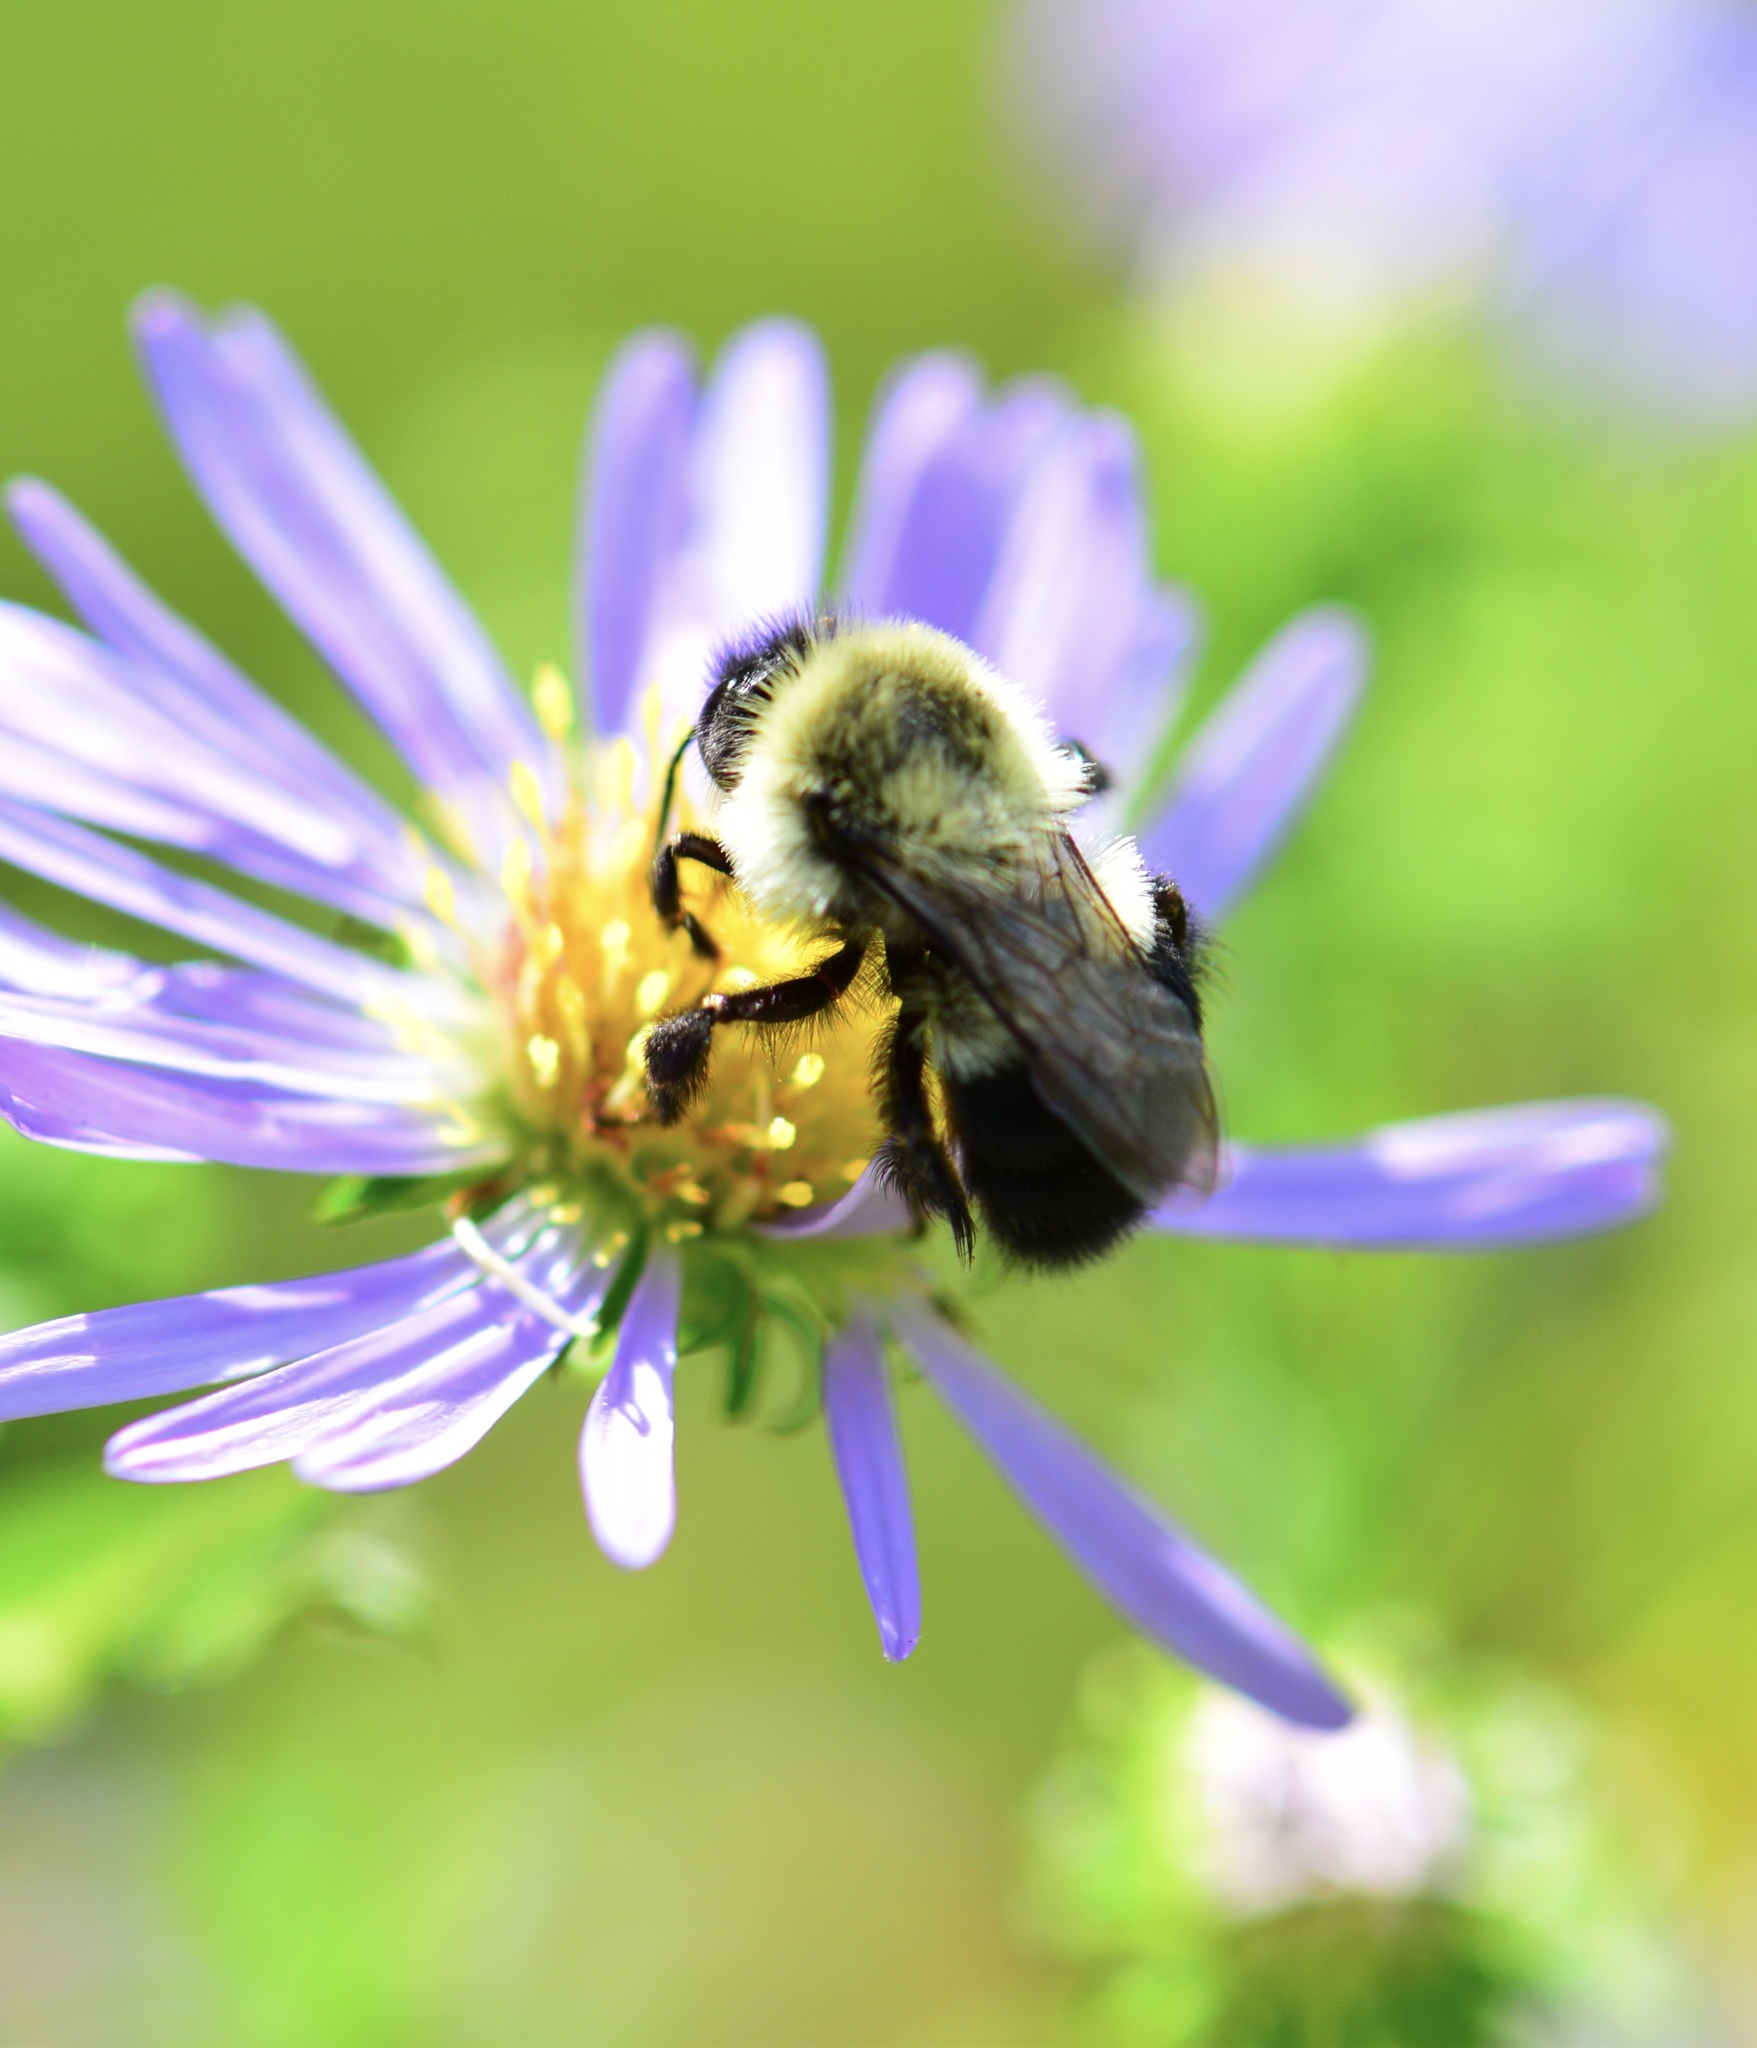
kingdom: Animalia
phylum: Arthropoda
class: Insecta
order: Hymenoptera
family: Apidae
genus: Bombus
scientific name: Bombus impatiens
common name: Common eastern bumble bee
